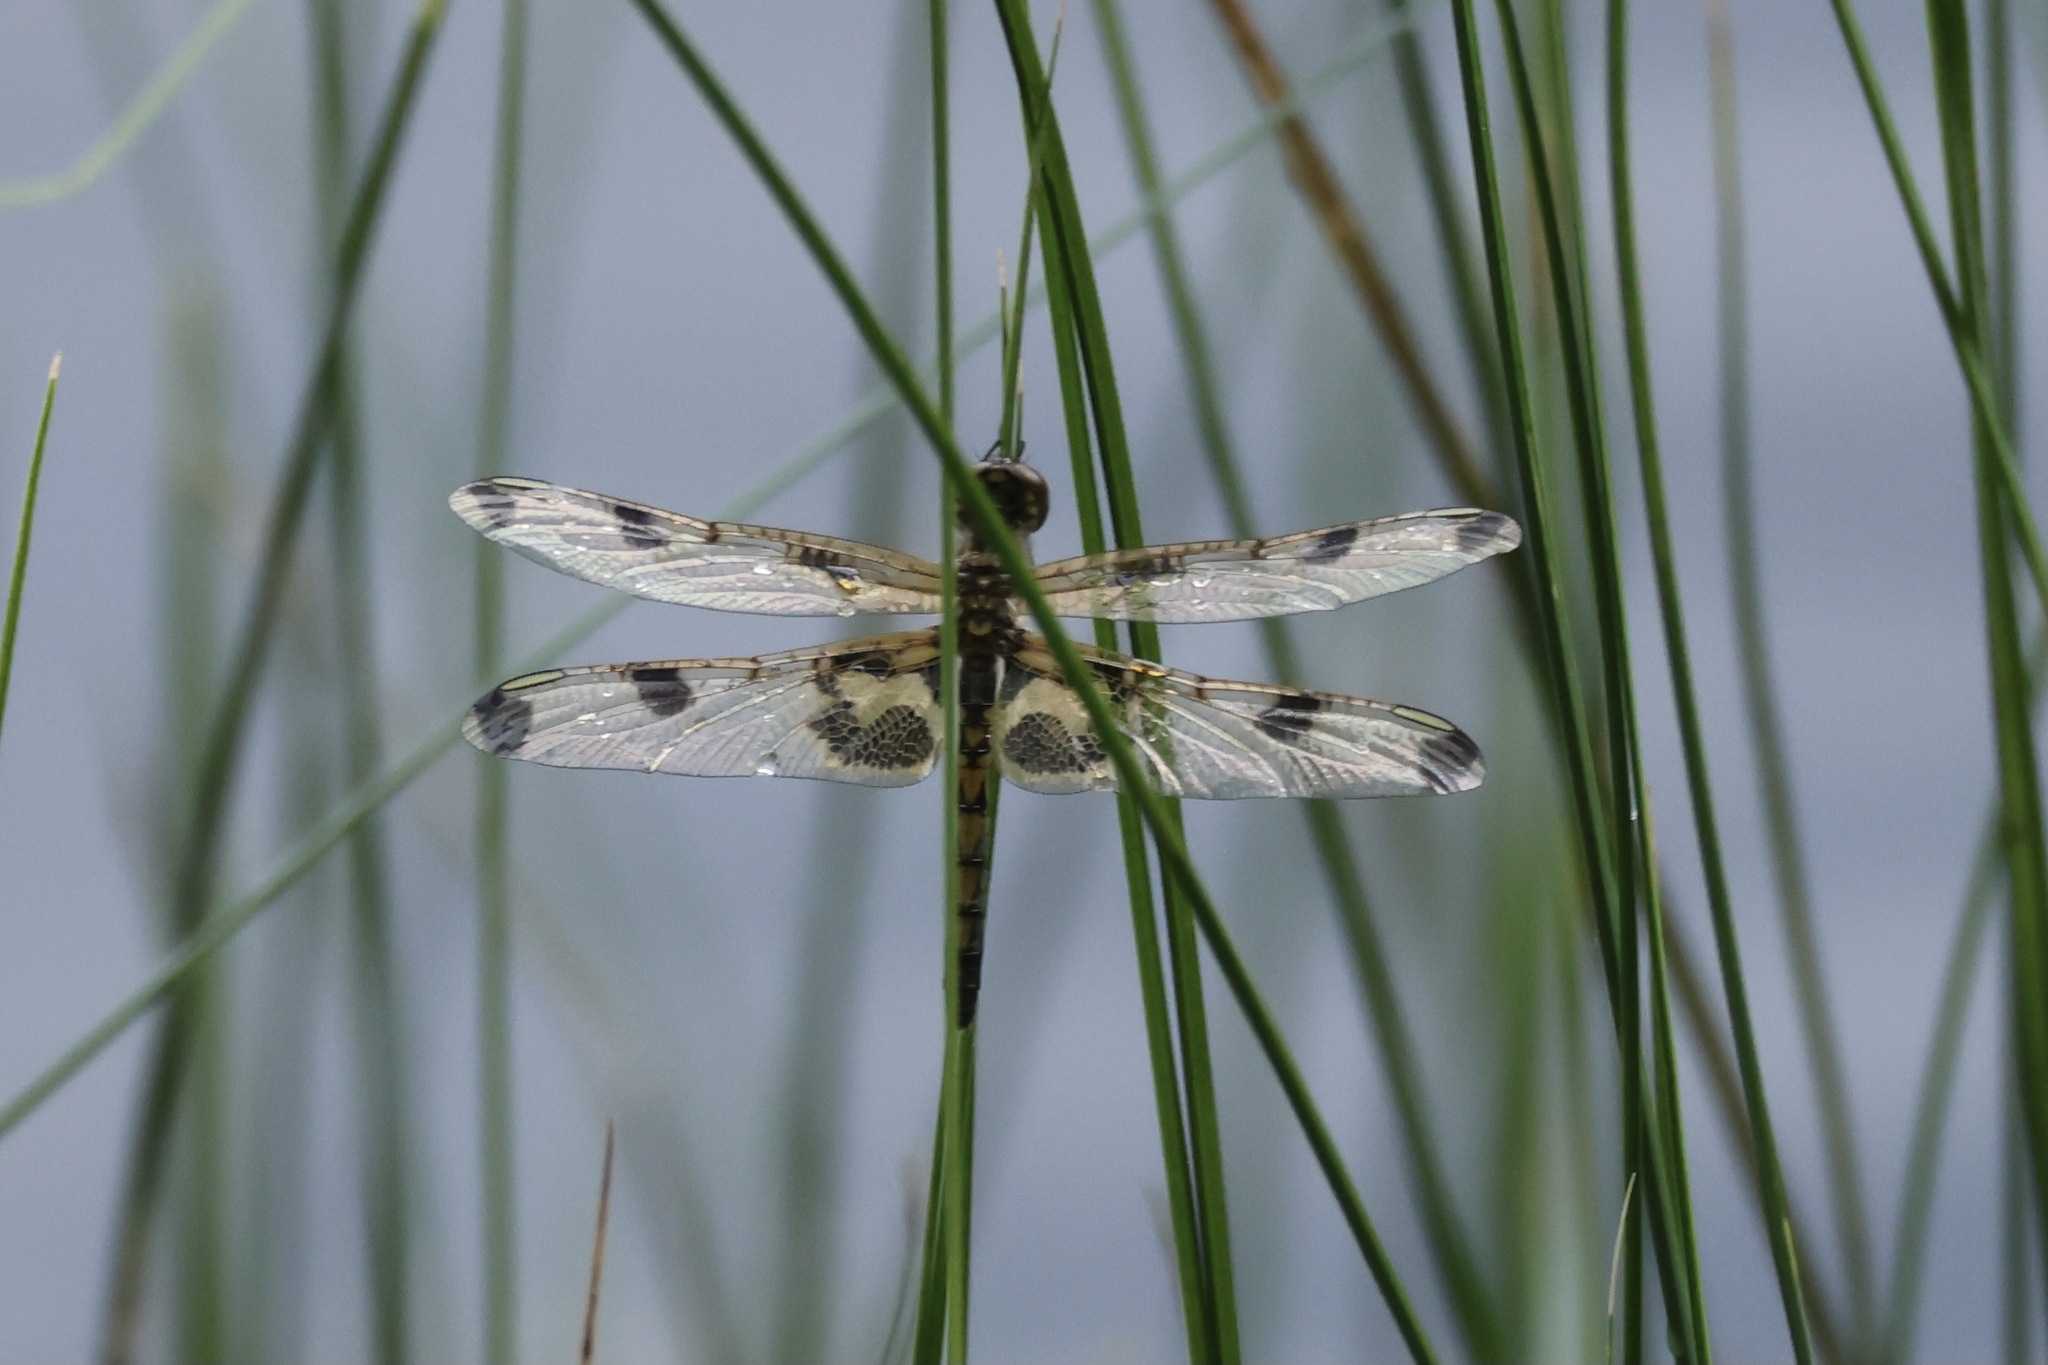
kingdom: Animalia
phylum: Arthropoda
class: Insecta
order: Odonata
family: Libellulidae
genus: Celithemis
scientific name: Celithemis elisa
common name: Calico pennant
